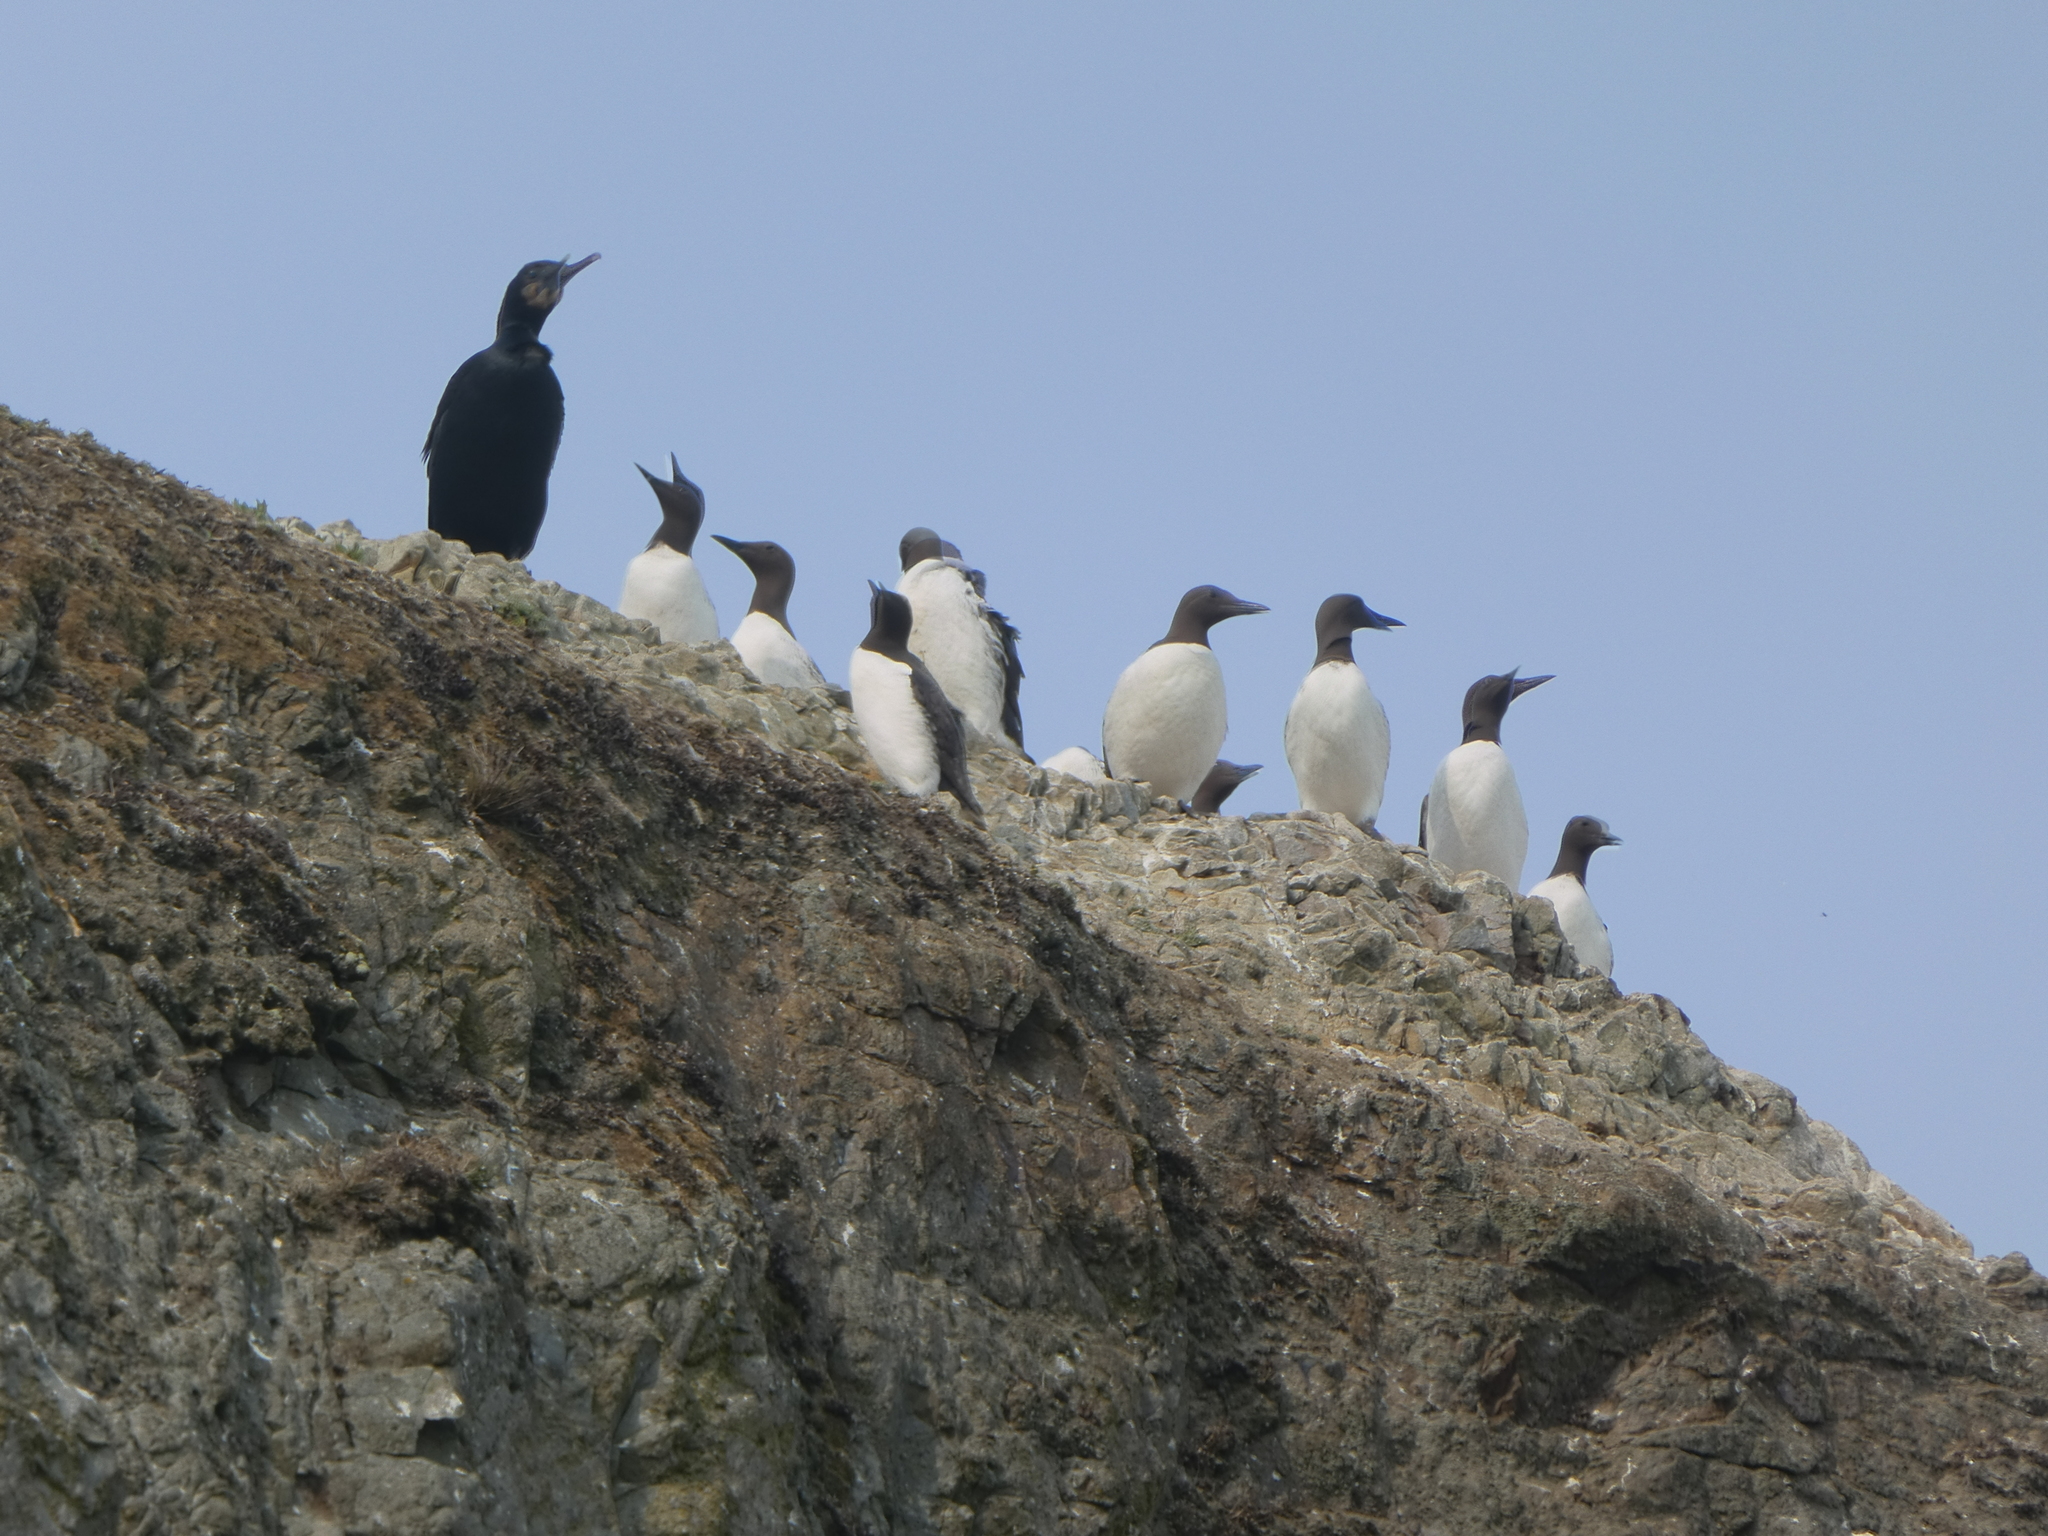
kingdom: Animalia
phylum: Chordata
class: Aves
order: Charadriiformes
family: Alcidae
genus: Uria
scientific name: Uria aalge
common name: Common murre
